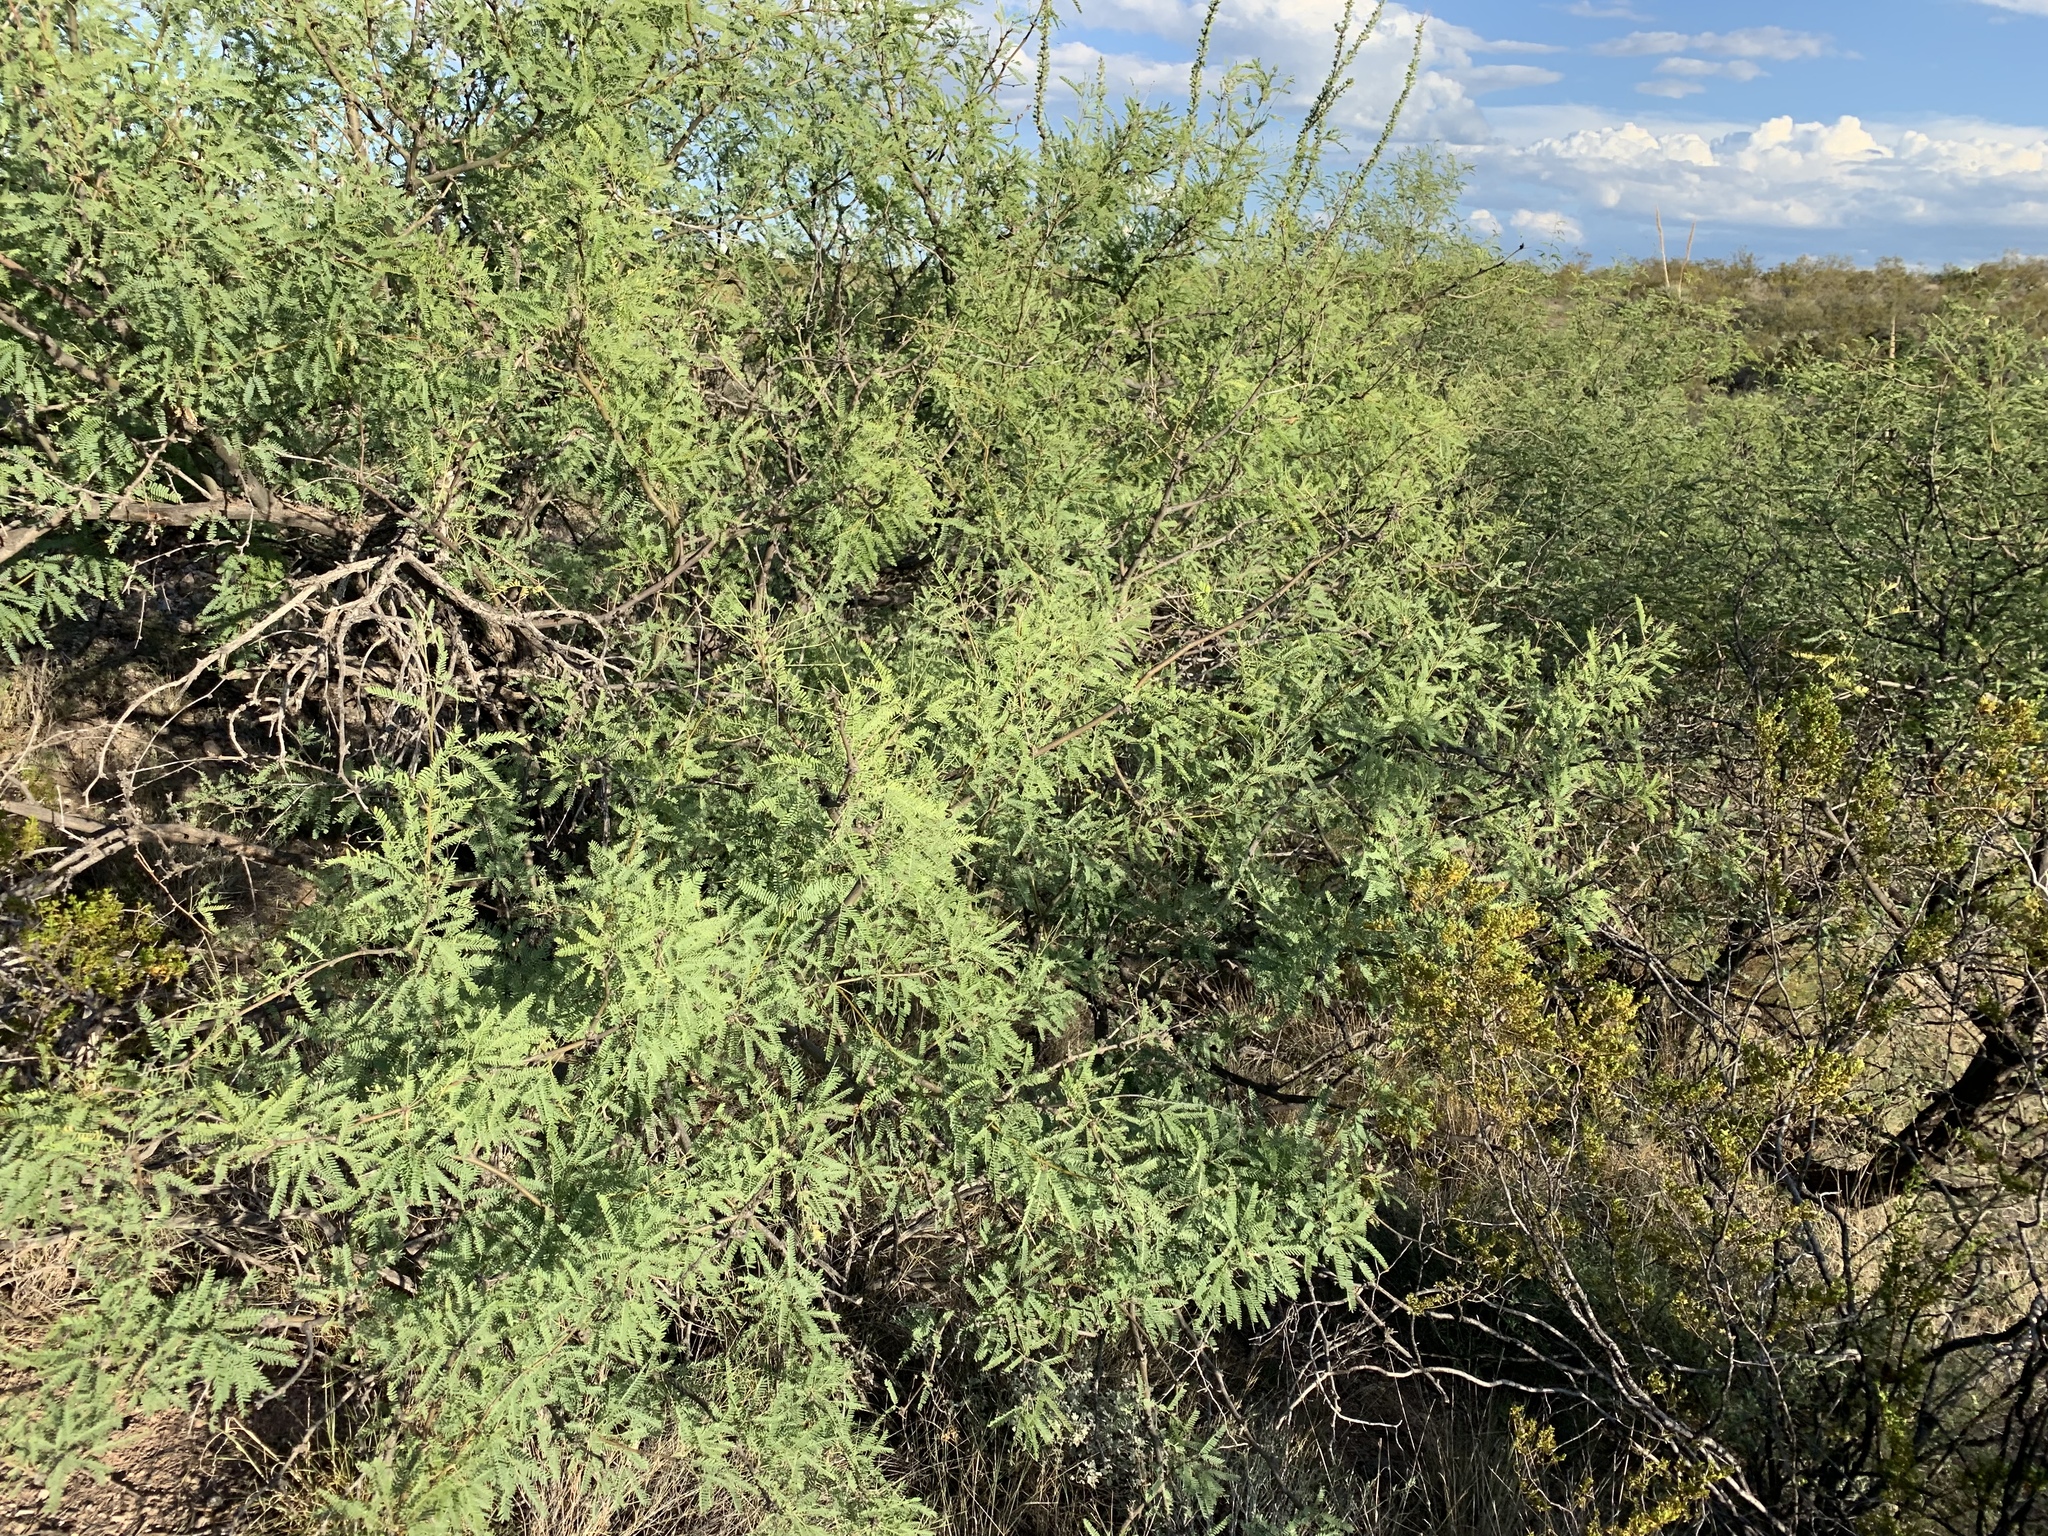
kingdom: Plantae
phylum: Tracheophyta
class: Magnoliopsida
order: Fabales
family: Fabaceae
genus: Prosopis
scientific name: Prosopis velutina
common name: Velvet mesquite
